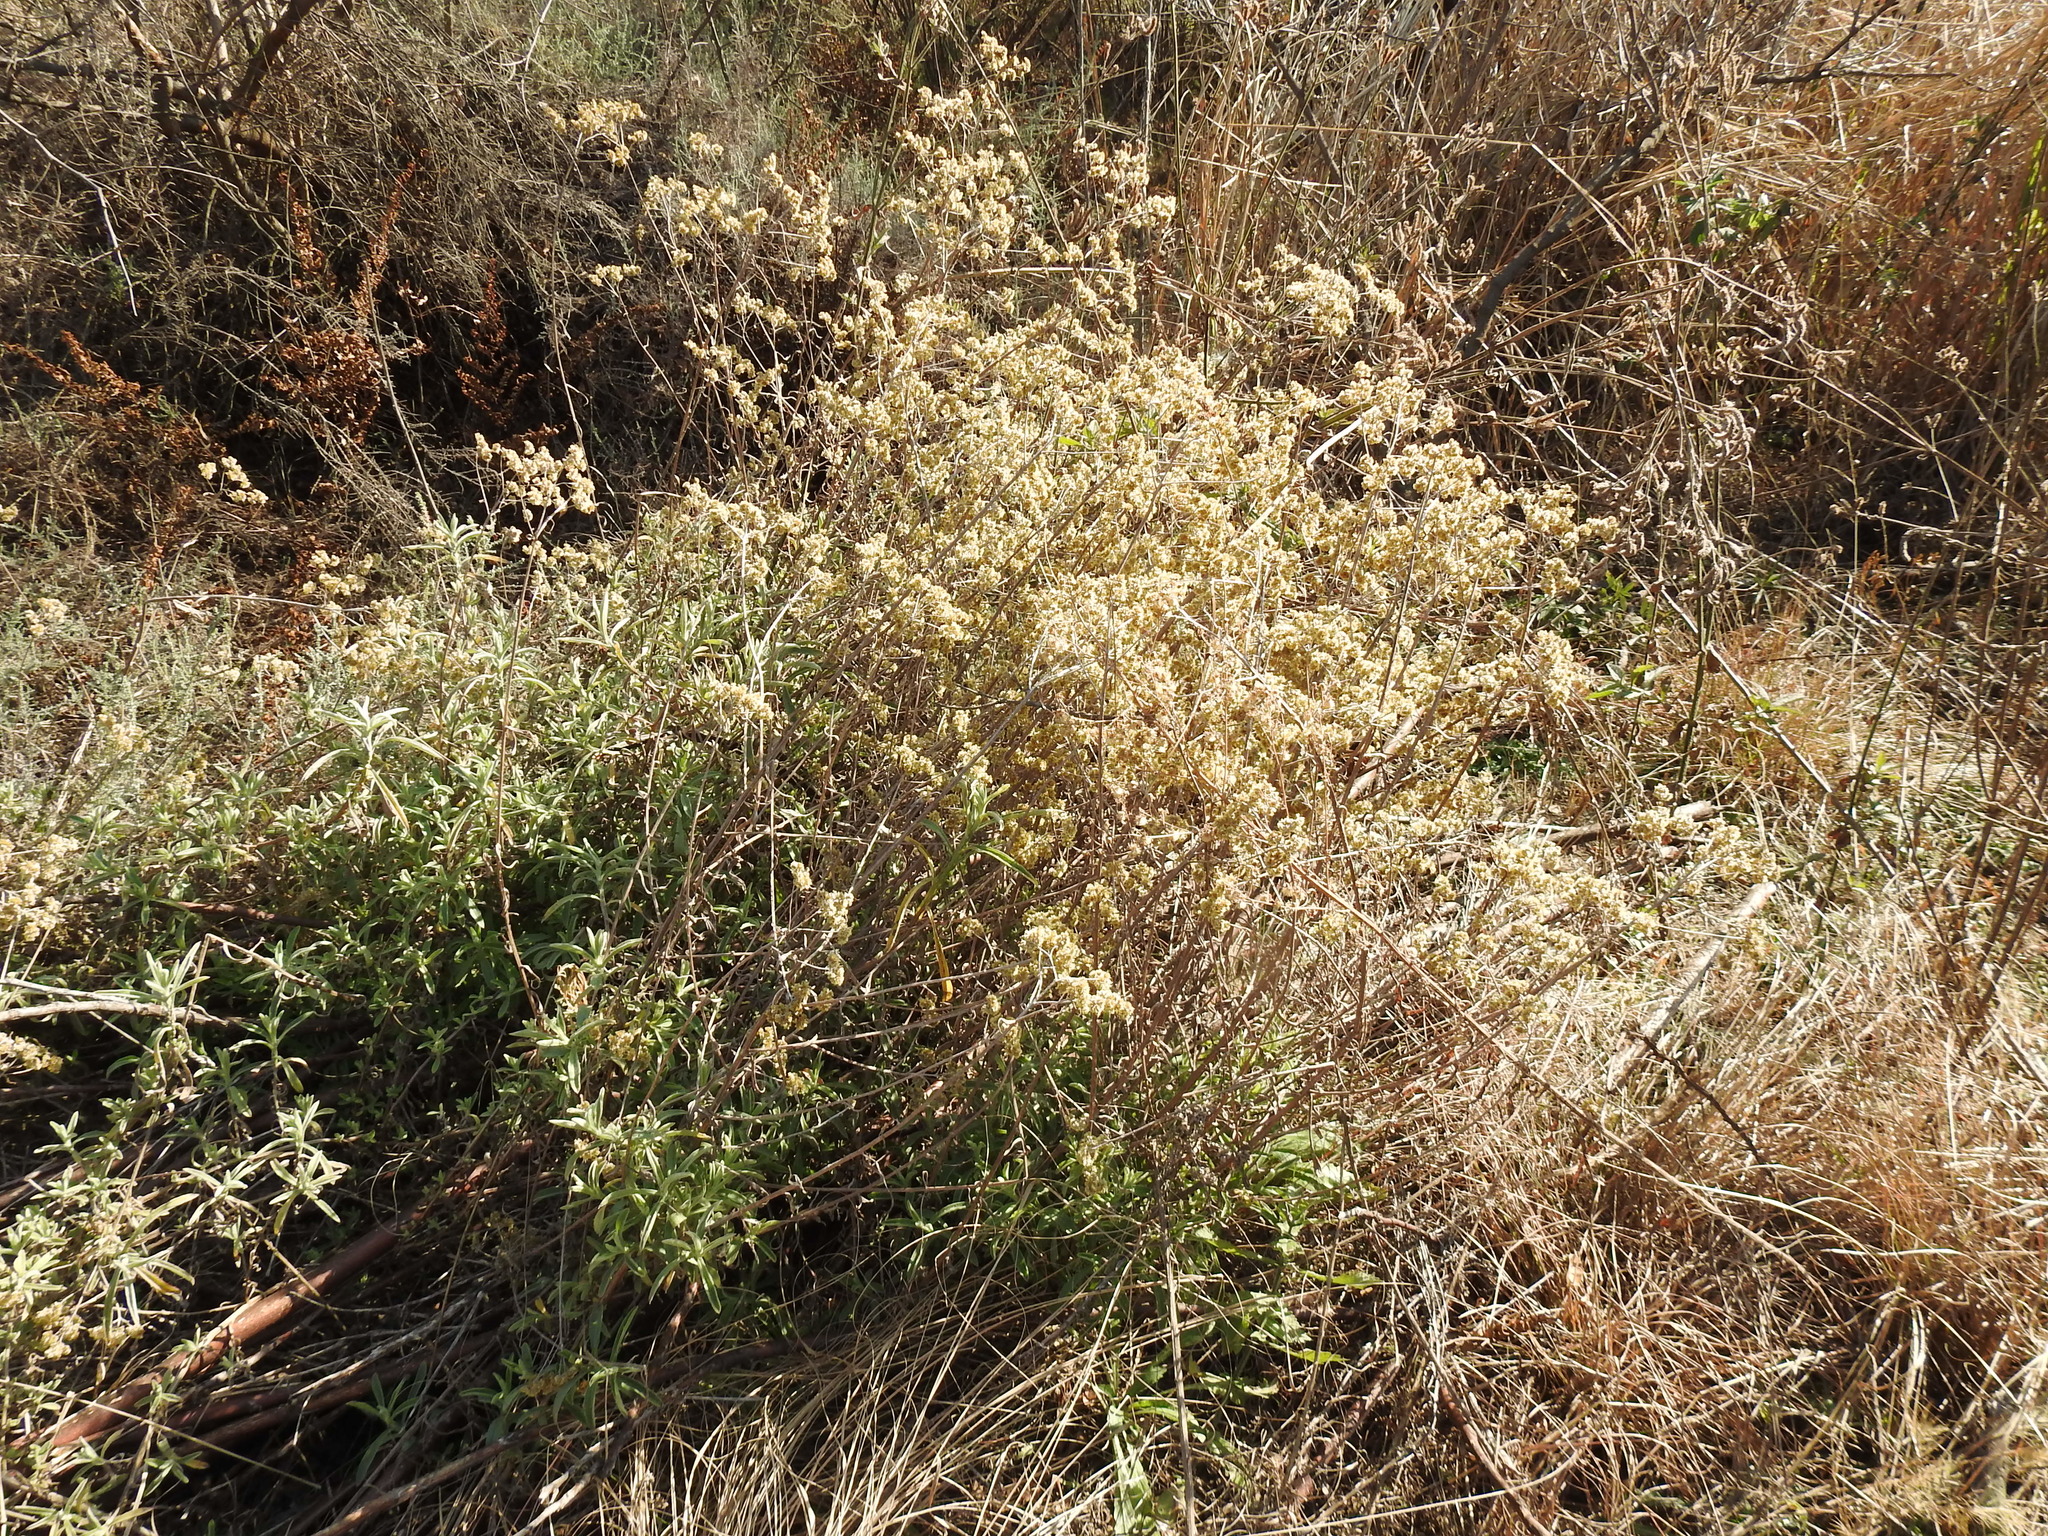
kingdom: Plantae
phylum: Tracheophyta
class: Magnoliopsida
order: Asterales
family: Asteraceae
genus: Helichrysum
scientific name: Helichrysum kraussii
